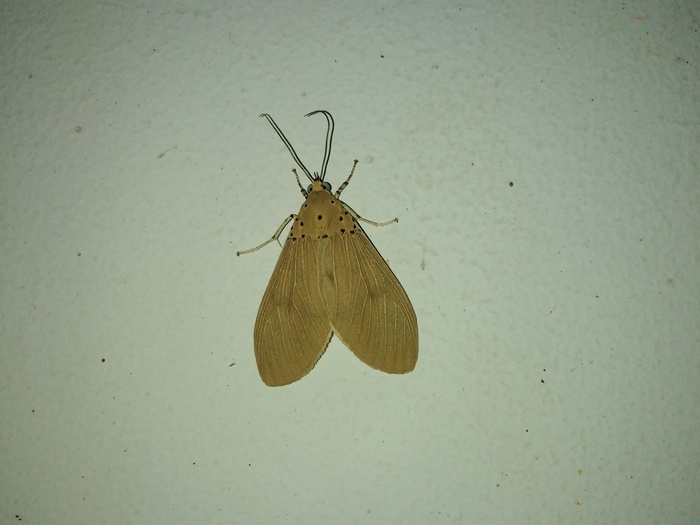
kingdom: Animalia
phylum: Arthropoda
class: Insecta
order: Lepidoptera
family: Erebidae
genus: Asota
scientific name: Asota caricae
